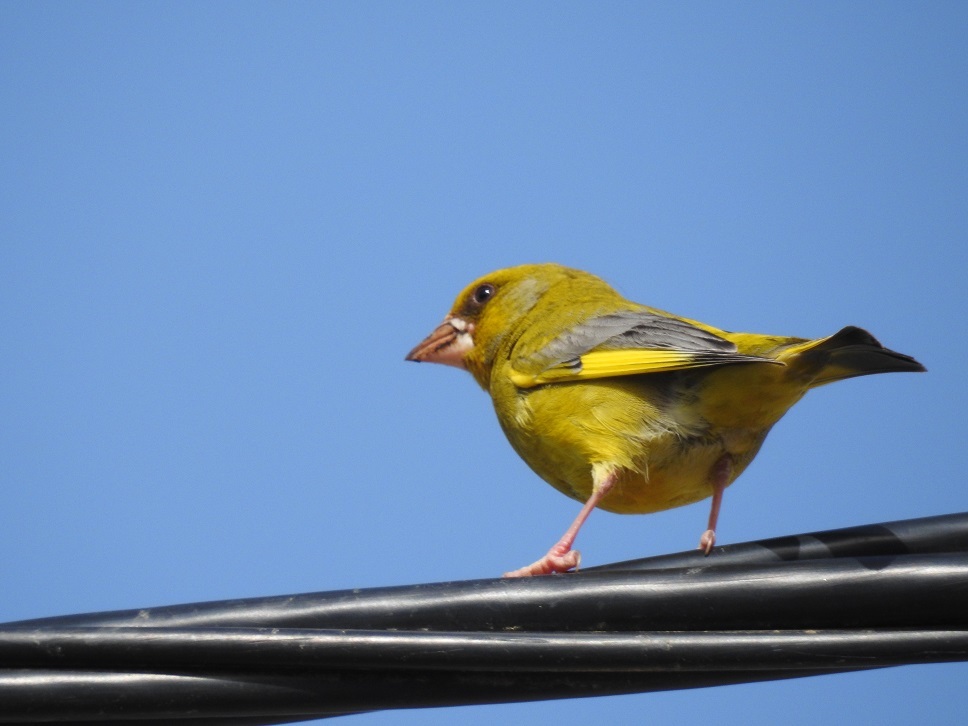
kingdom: Plantae
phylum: Tracheophyta
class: Liliopsida
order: Poales
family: Poaceae
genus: Chloris
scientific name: Chloris chloris
